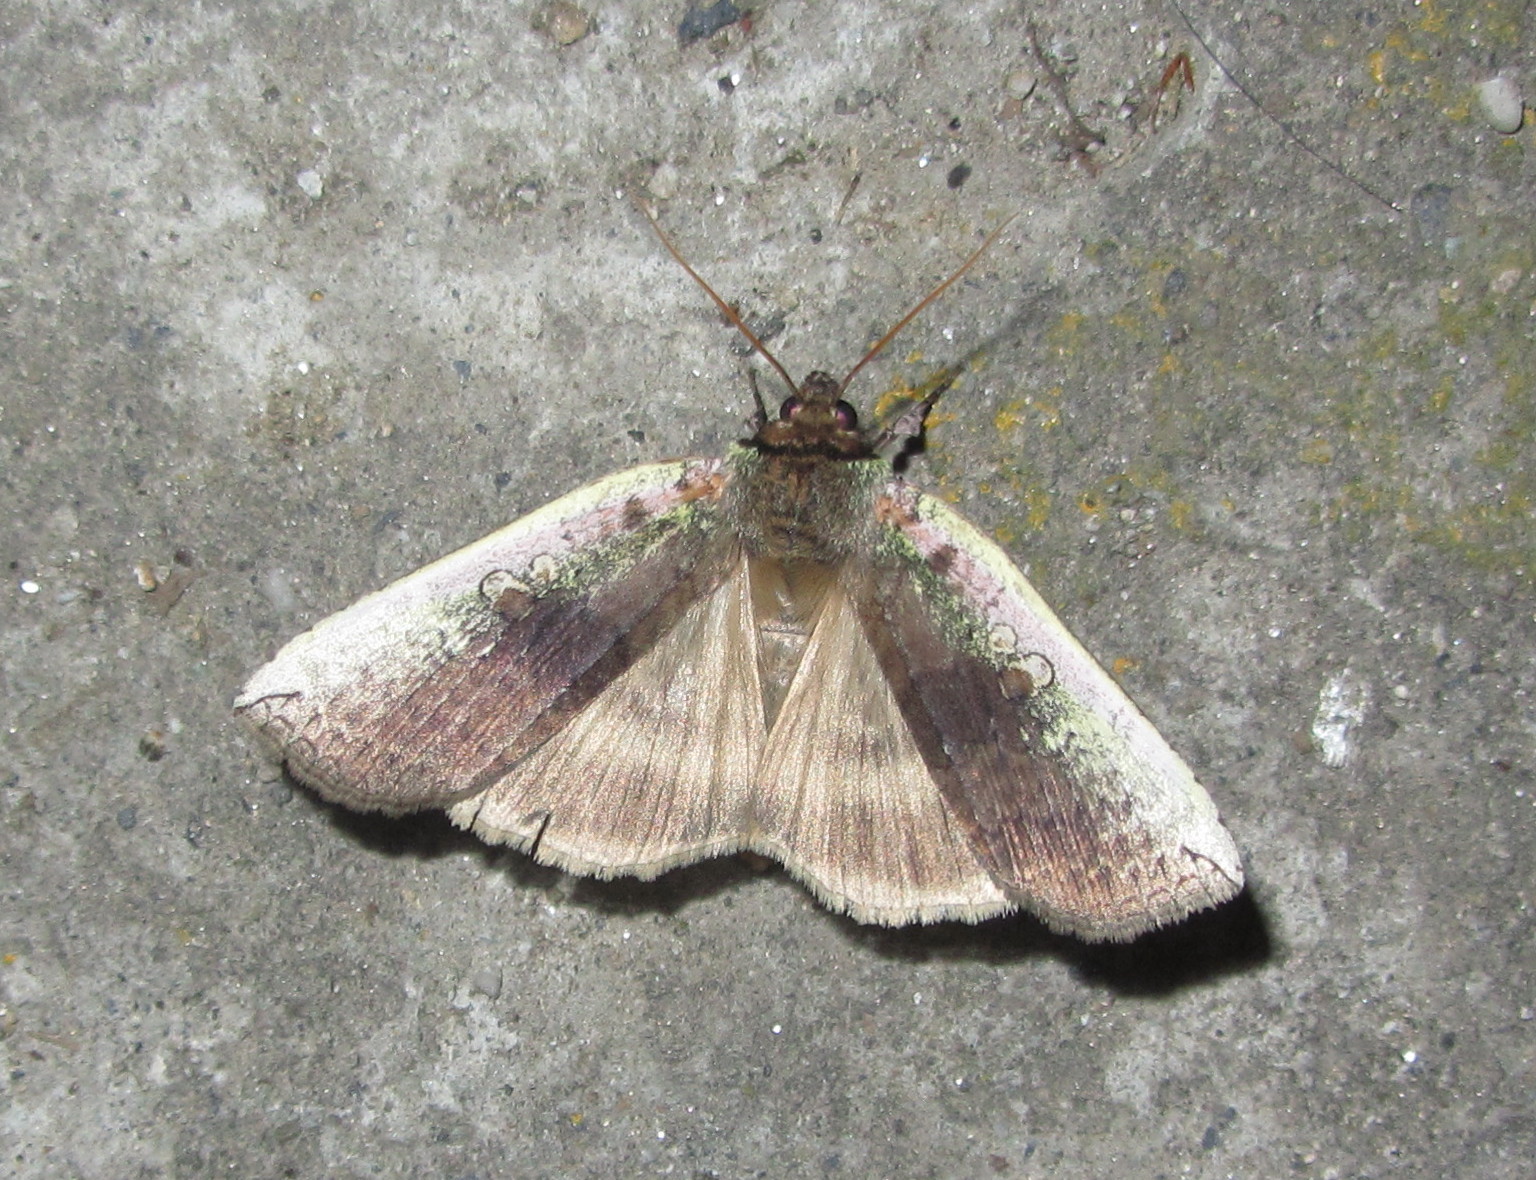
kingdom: Animalia
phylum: Arthropoda
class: Insecta
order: Lepidoptera
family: Drepanidae
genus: Tethea
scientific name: Tethea oberthuri
